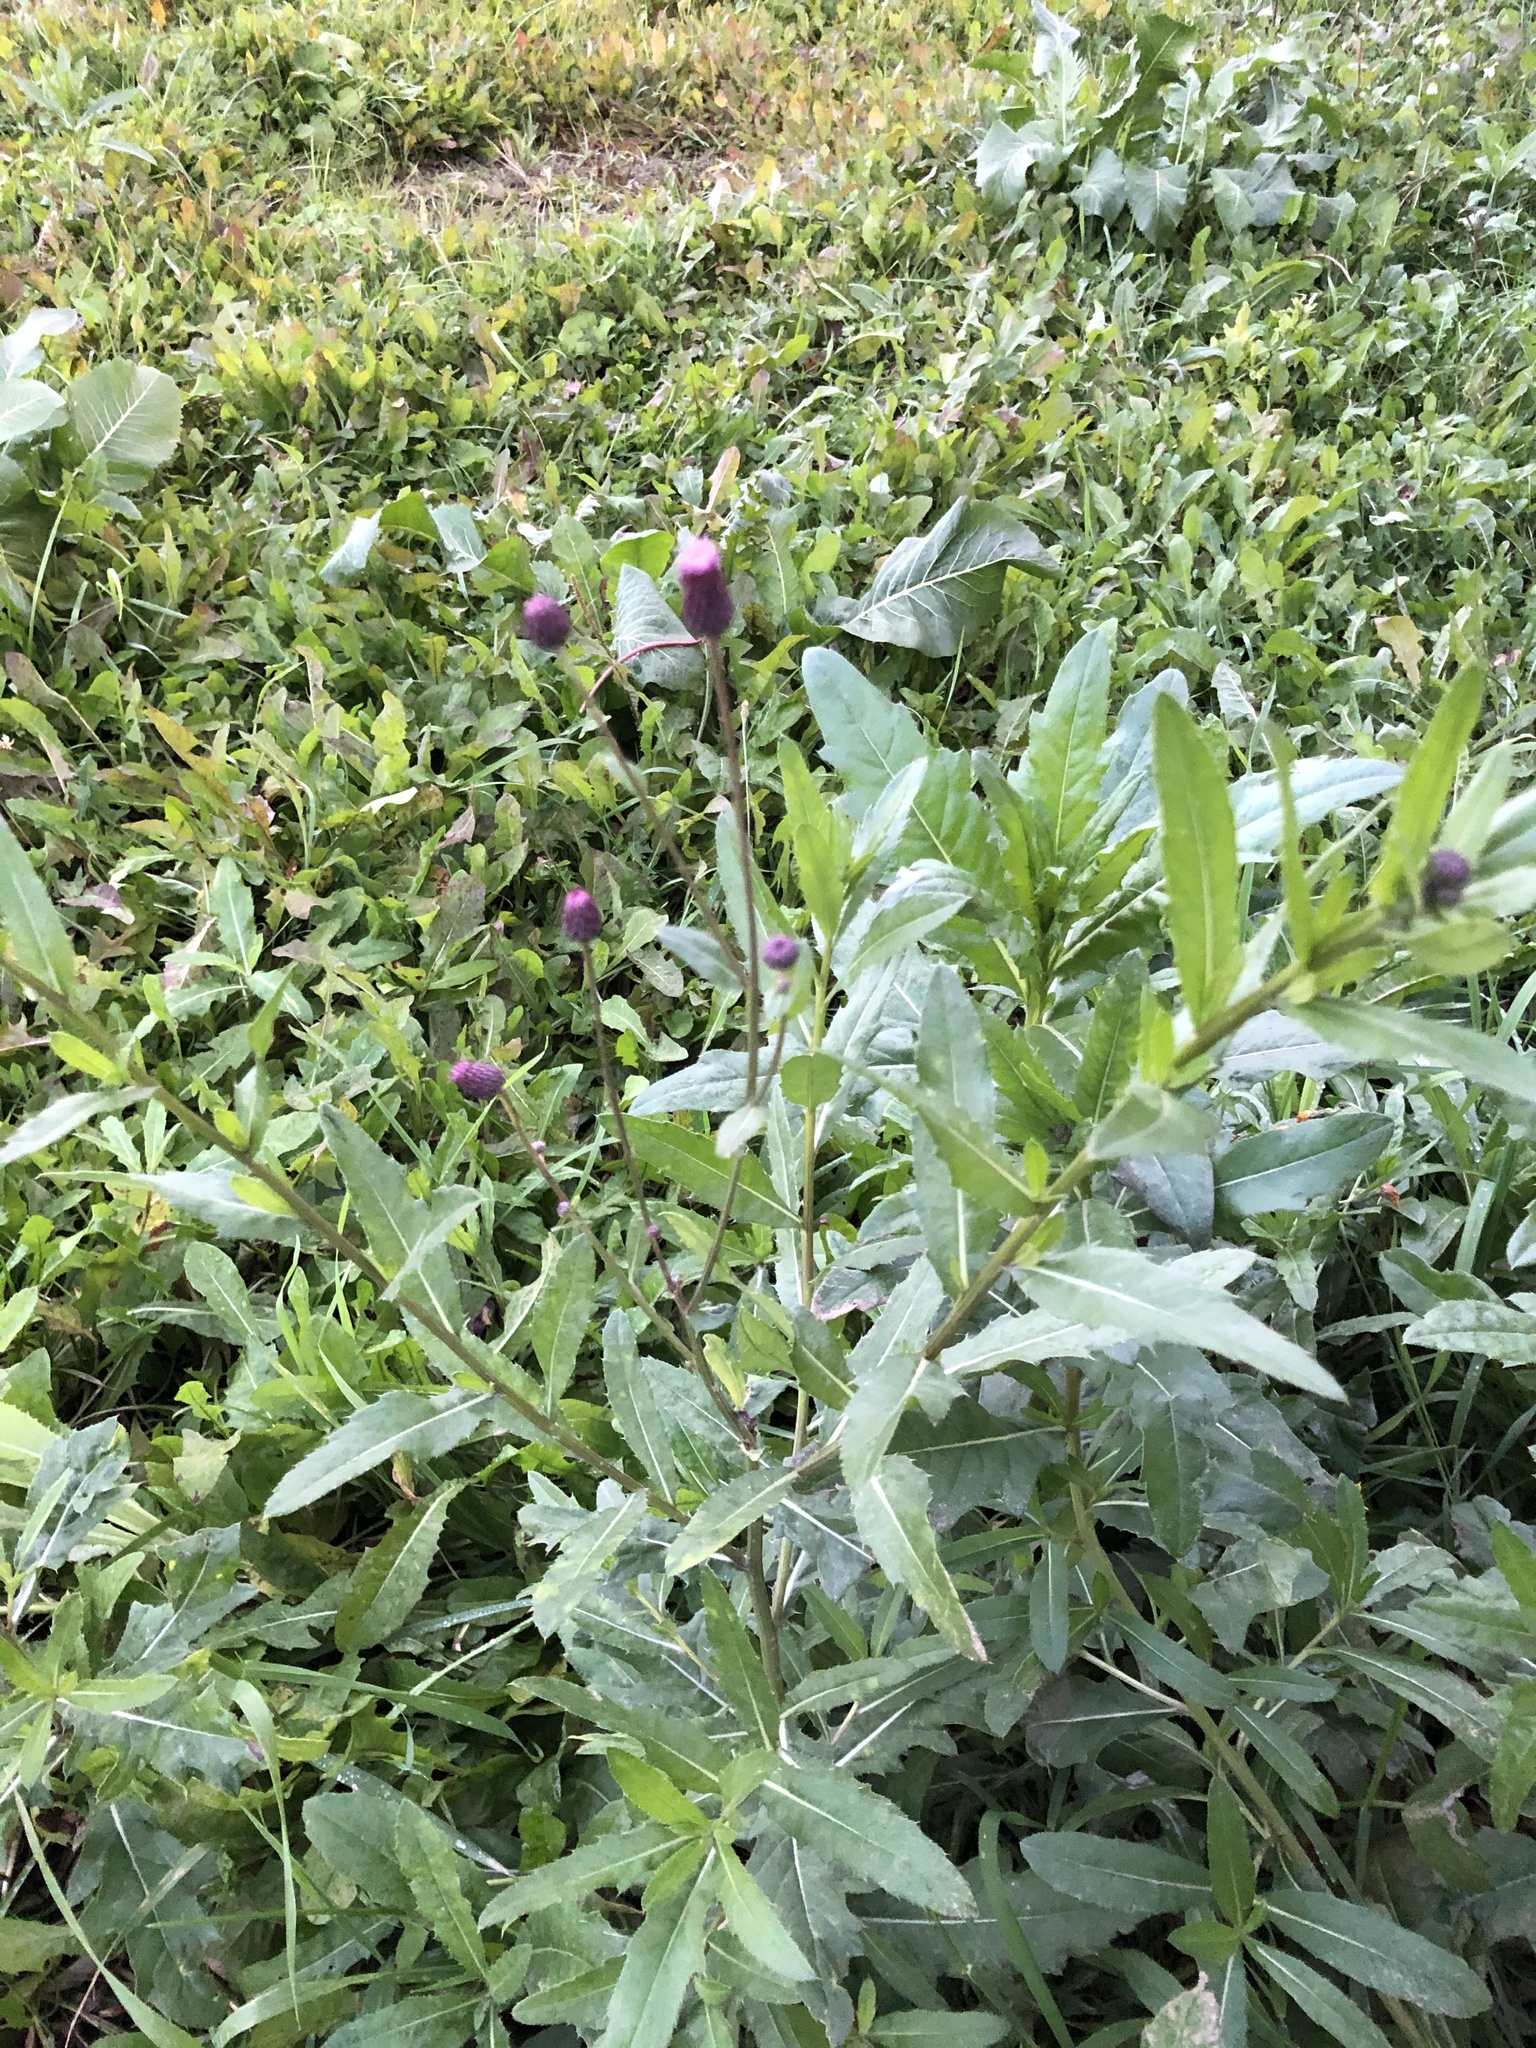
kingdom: Plantae
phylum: Tracheophyta
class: Magnoliopsida
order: Asterales
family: Asteraceae
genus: Cirsium
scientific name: Cirsium arvense
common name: Creeping thistle
